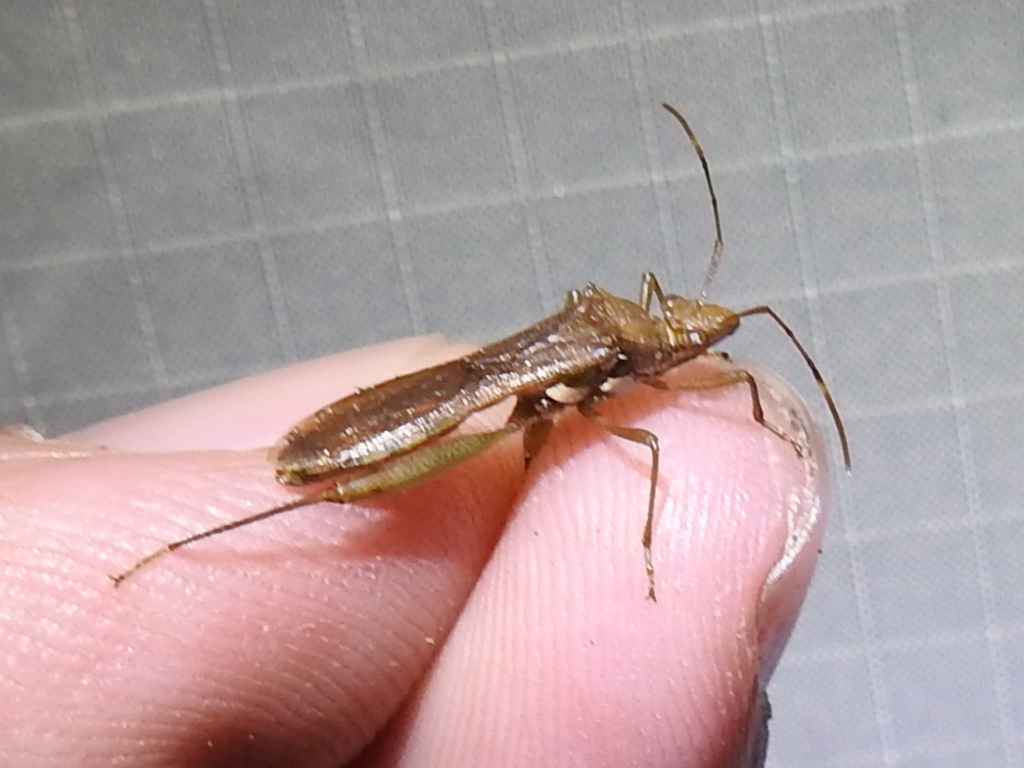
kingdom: Animalia
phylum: Arthropoda
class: Insecta
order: Hemiptera
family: Alydidae
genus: Hyalymenus
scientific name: Hyalymenus tarsatus
